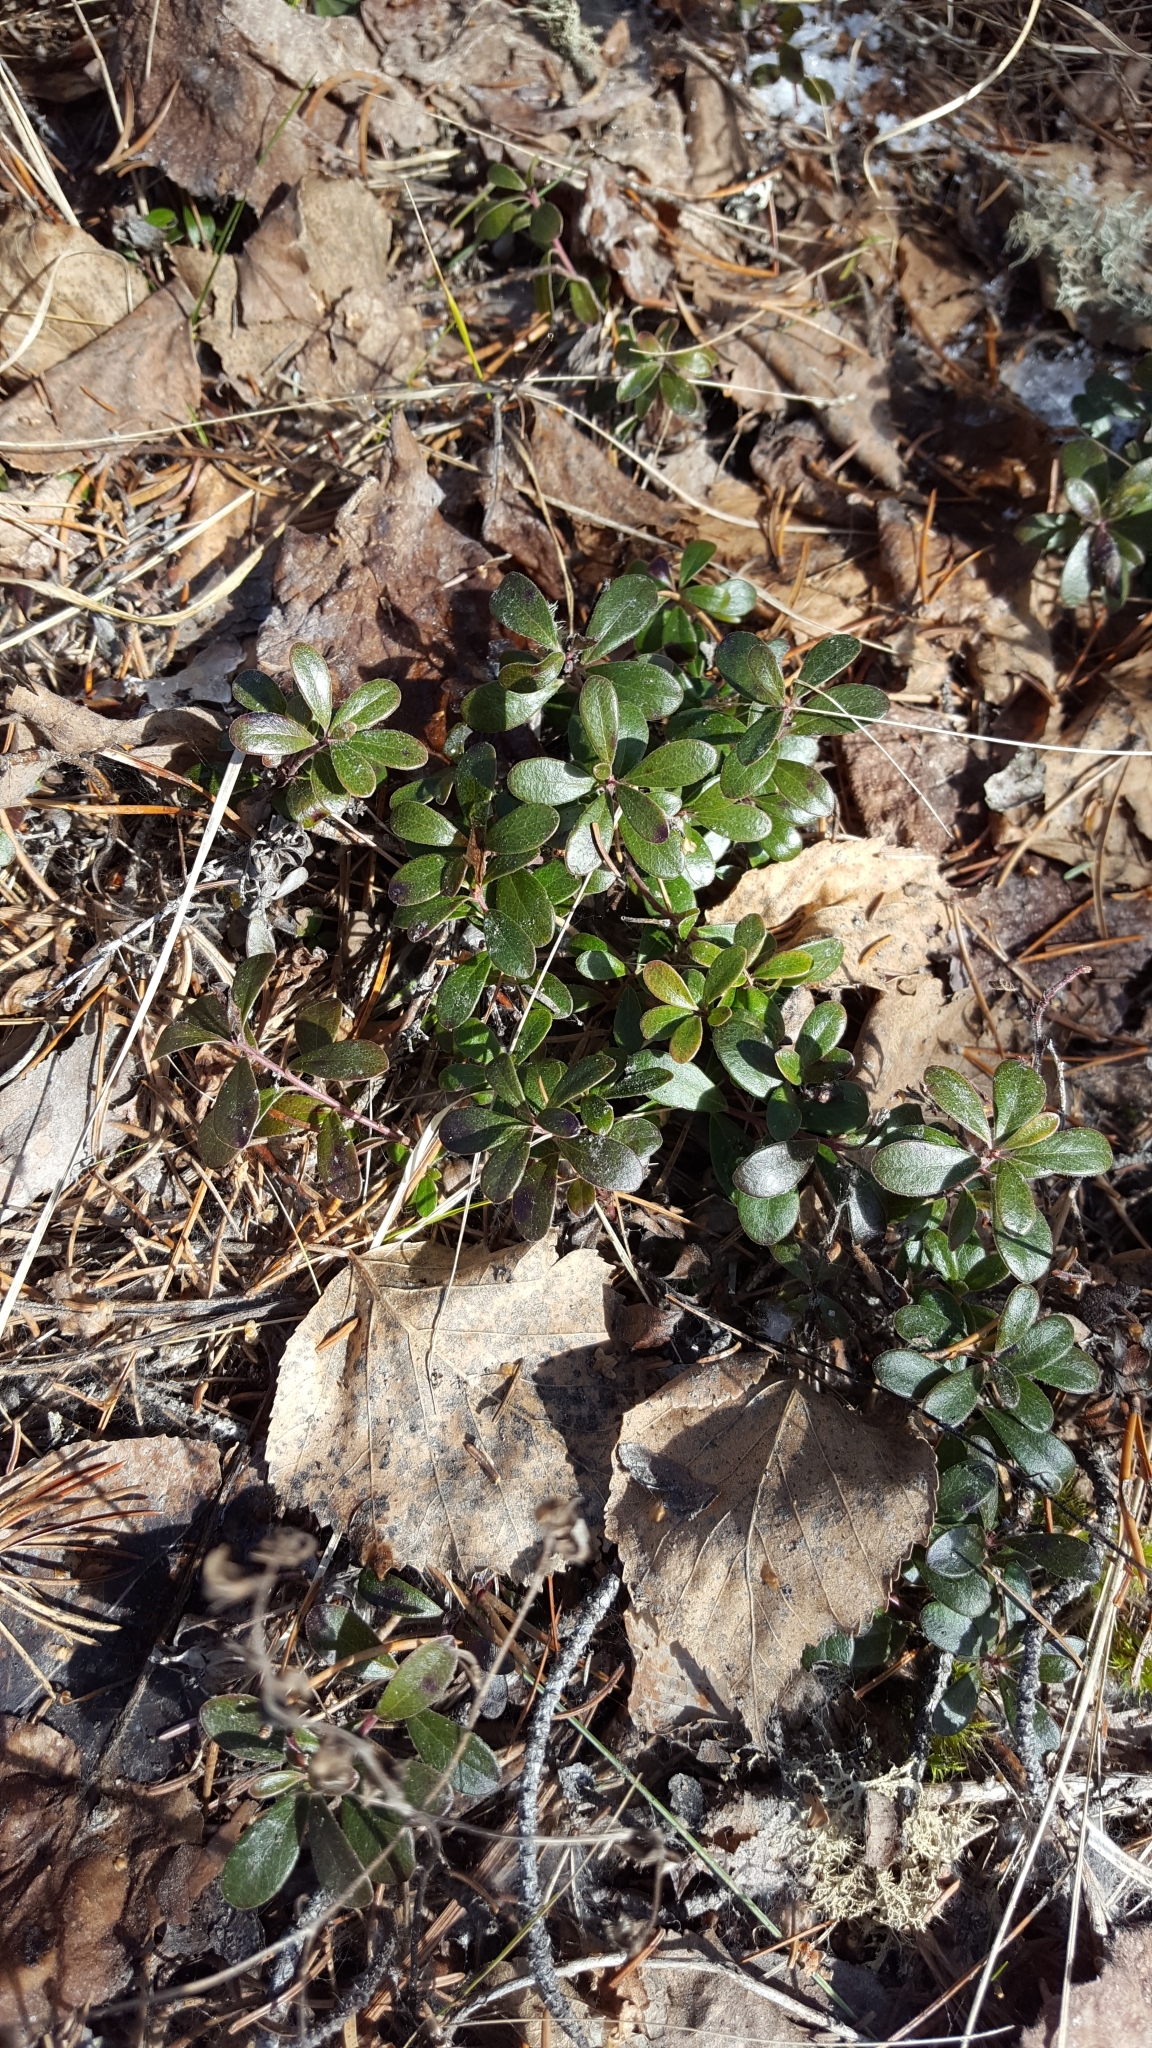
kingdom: Plantae
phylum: Tracheophyta
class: Magnoliopsida
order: Ericales
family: Ericaceae
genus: Arctostaphylos
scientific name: Arctostaphylos uva-ursi
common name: Bearberry
